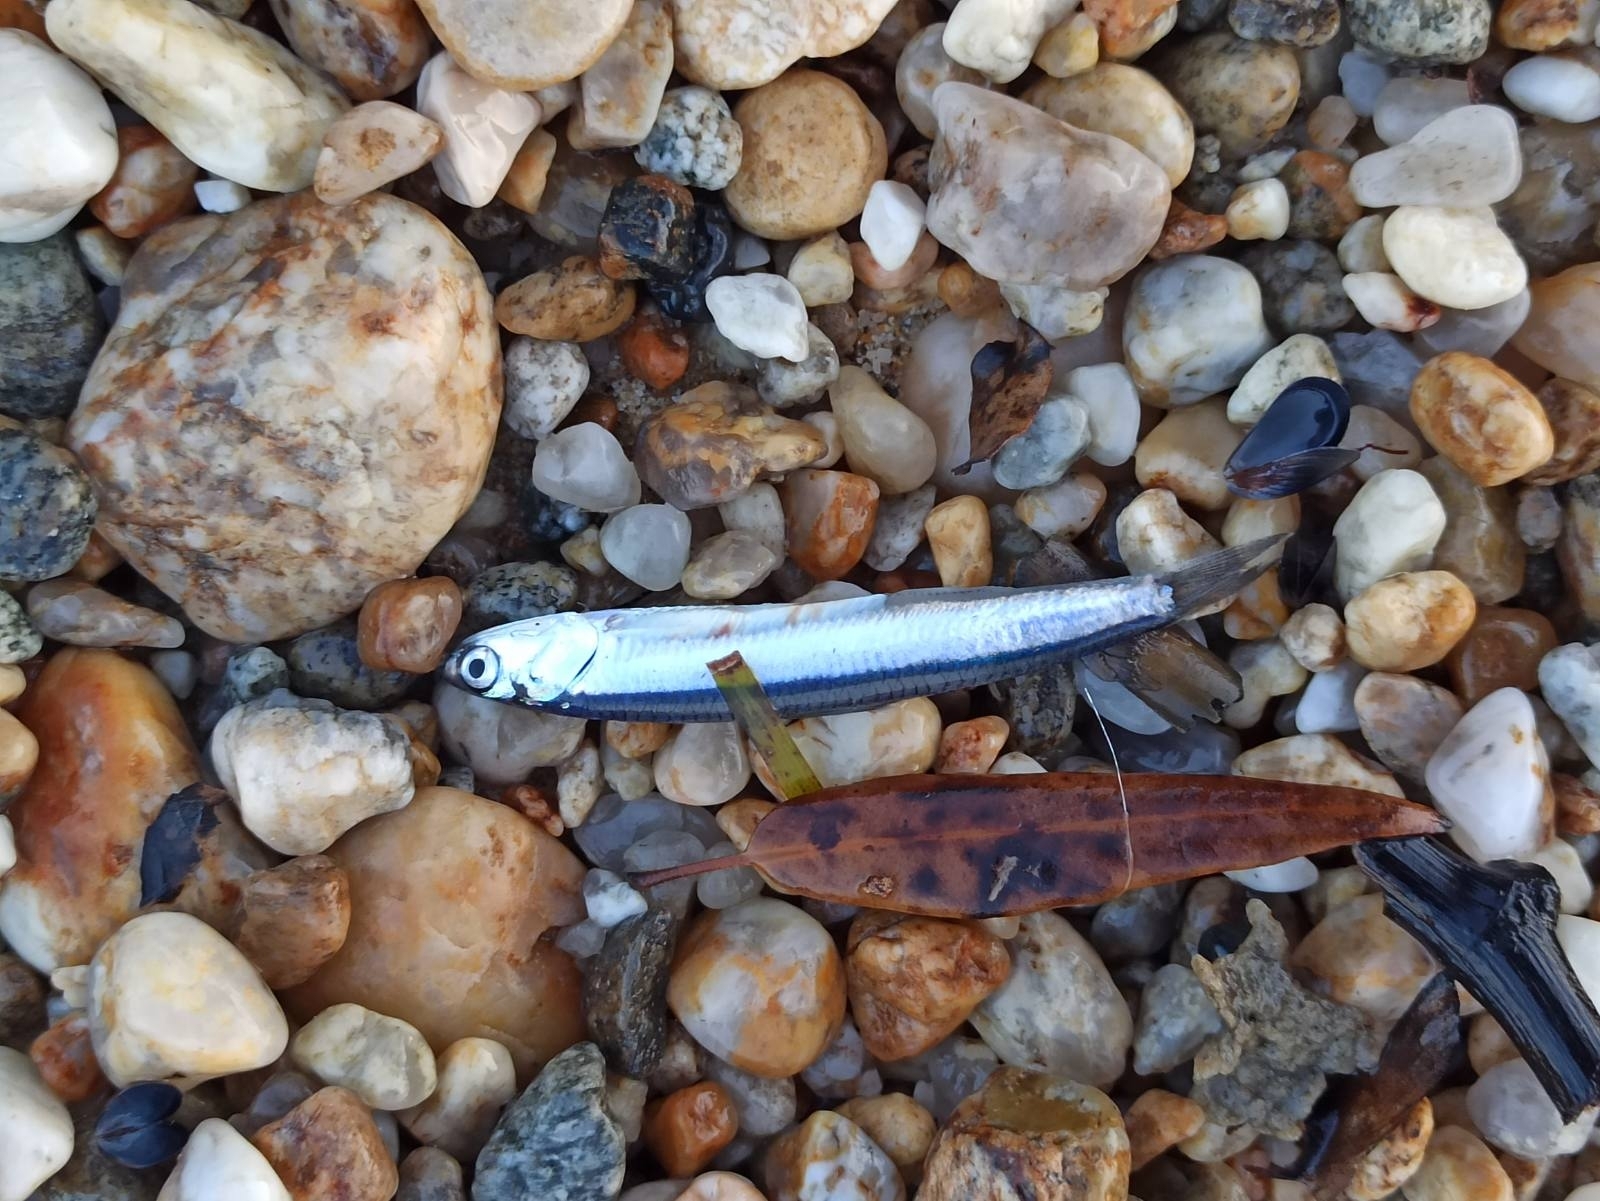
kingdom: Animalia
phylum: Chordata
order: Clupeiformes
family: Engraulidae
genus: Engraulis
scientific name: Engraulis
